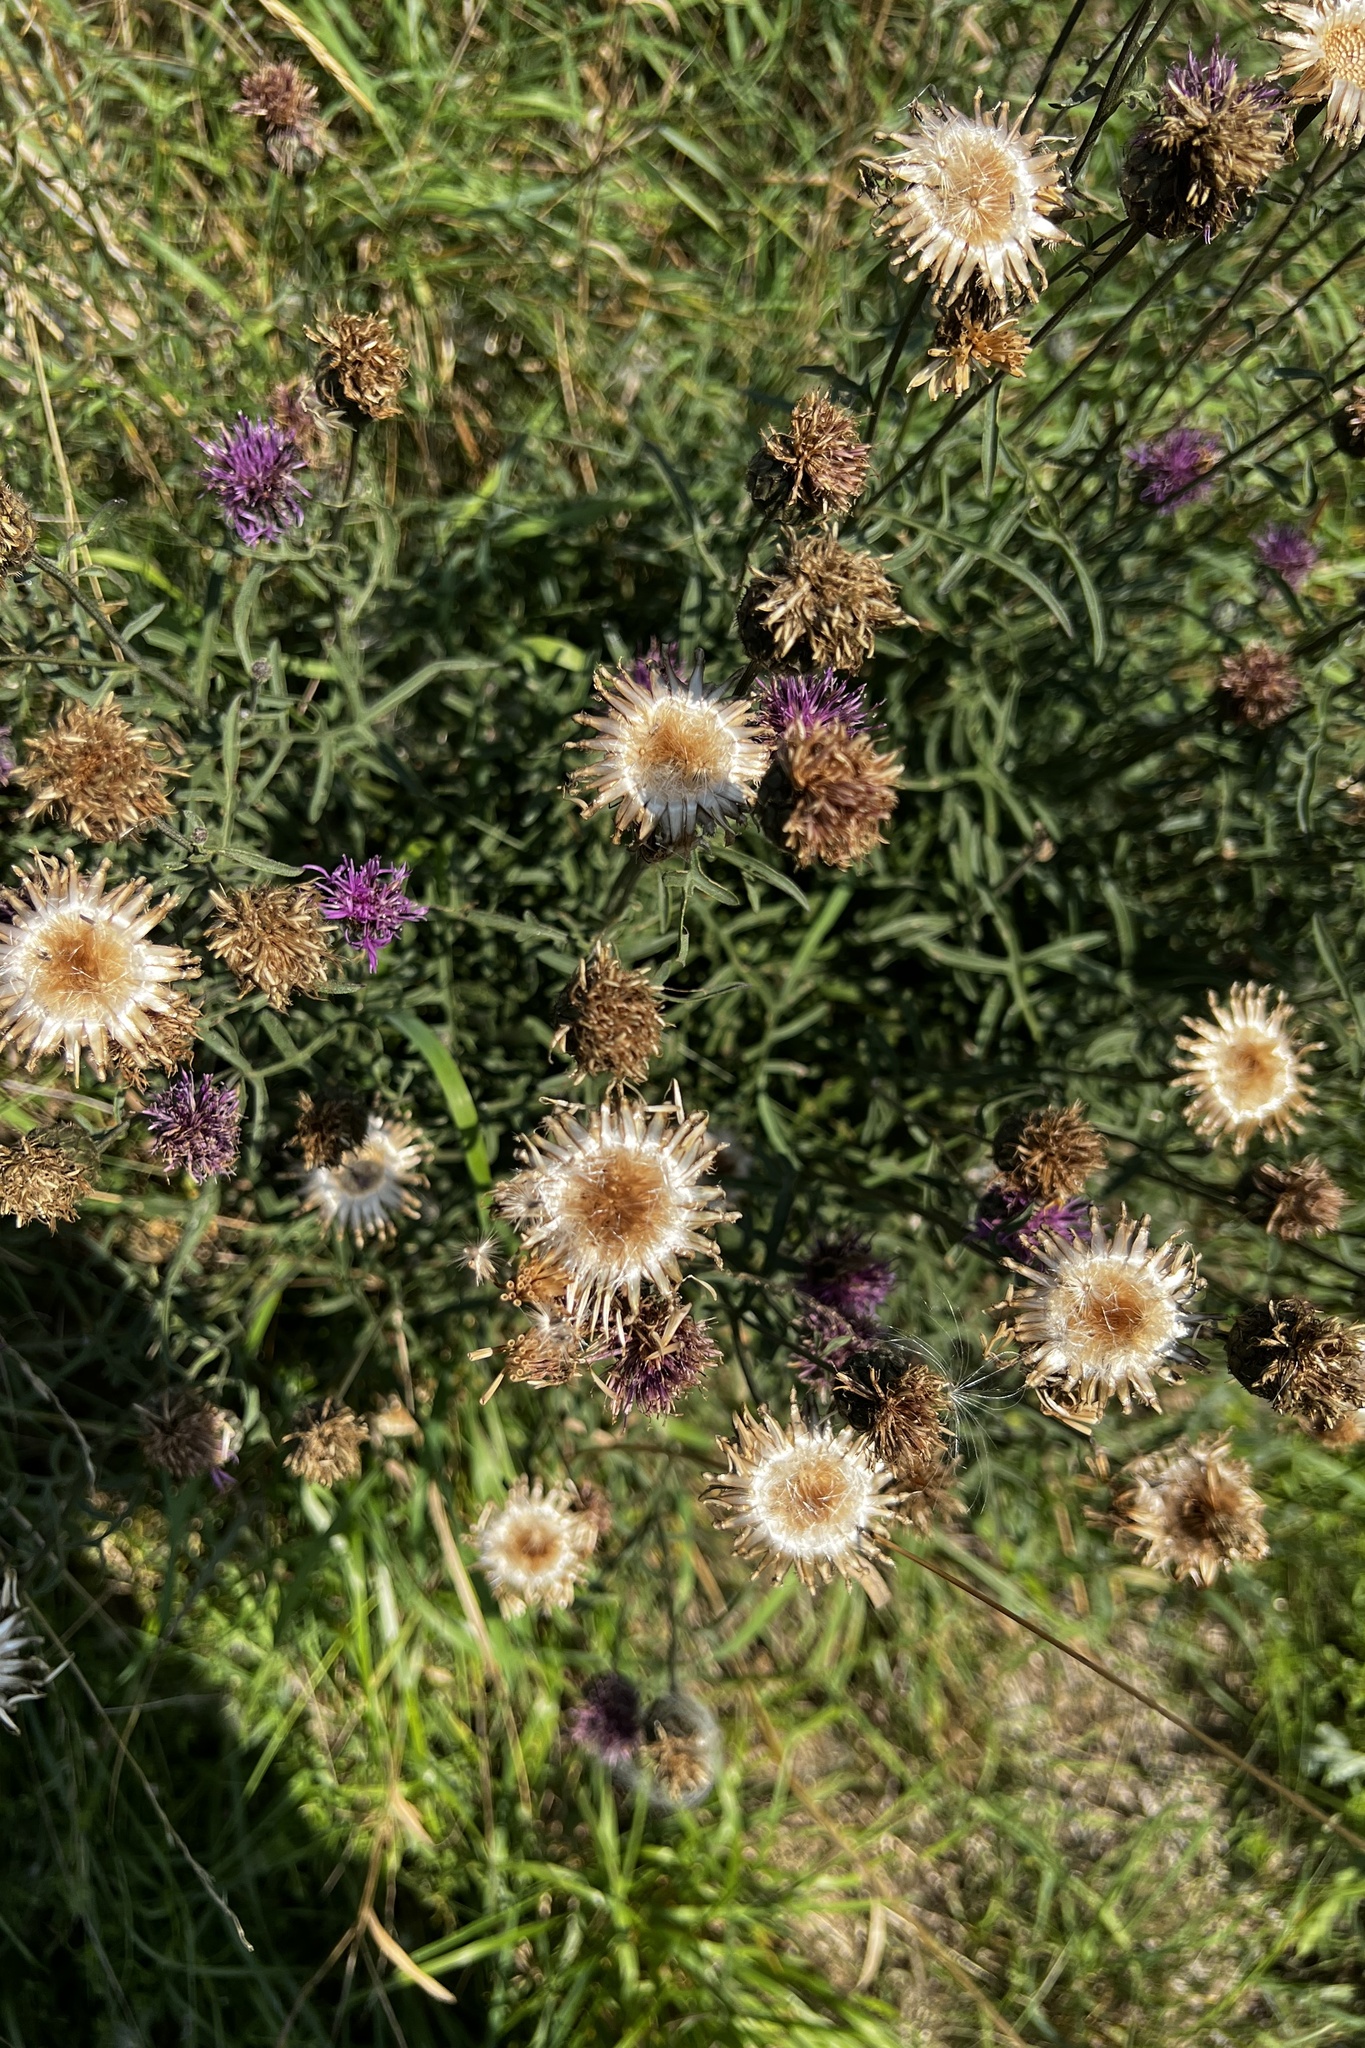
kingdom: Plantae
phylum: Tracheophyta
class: Magnoliopsida
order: Asterales
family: Asteraceae
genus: Centaurea
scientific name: Centaurea scabiosa
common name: Greater knapweed
